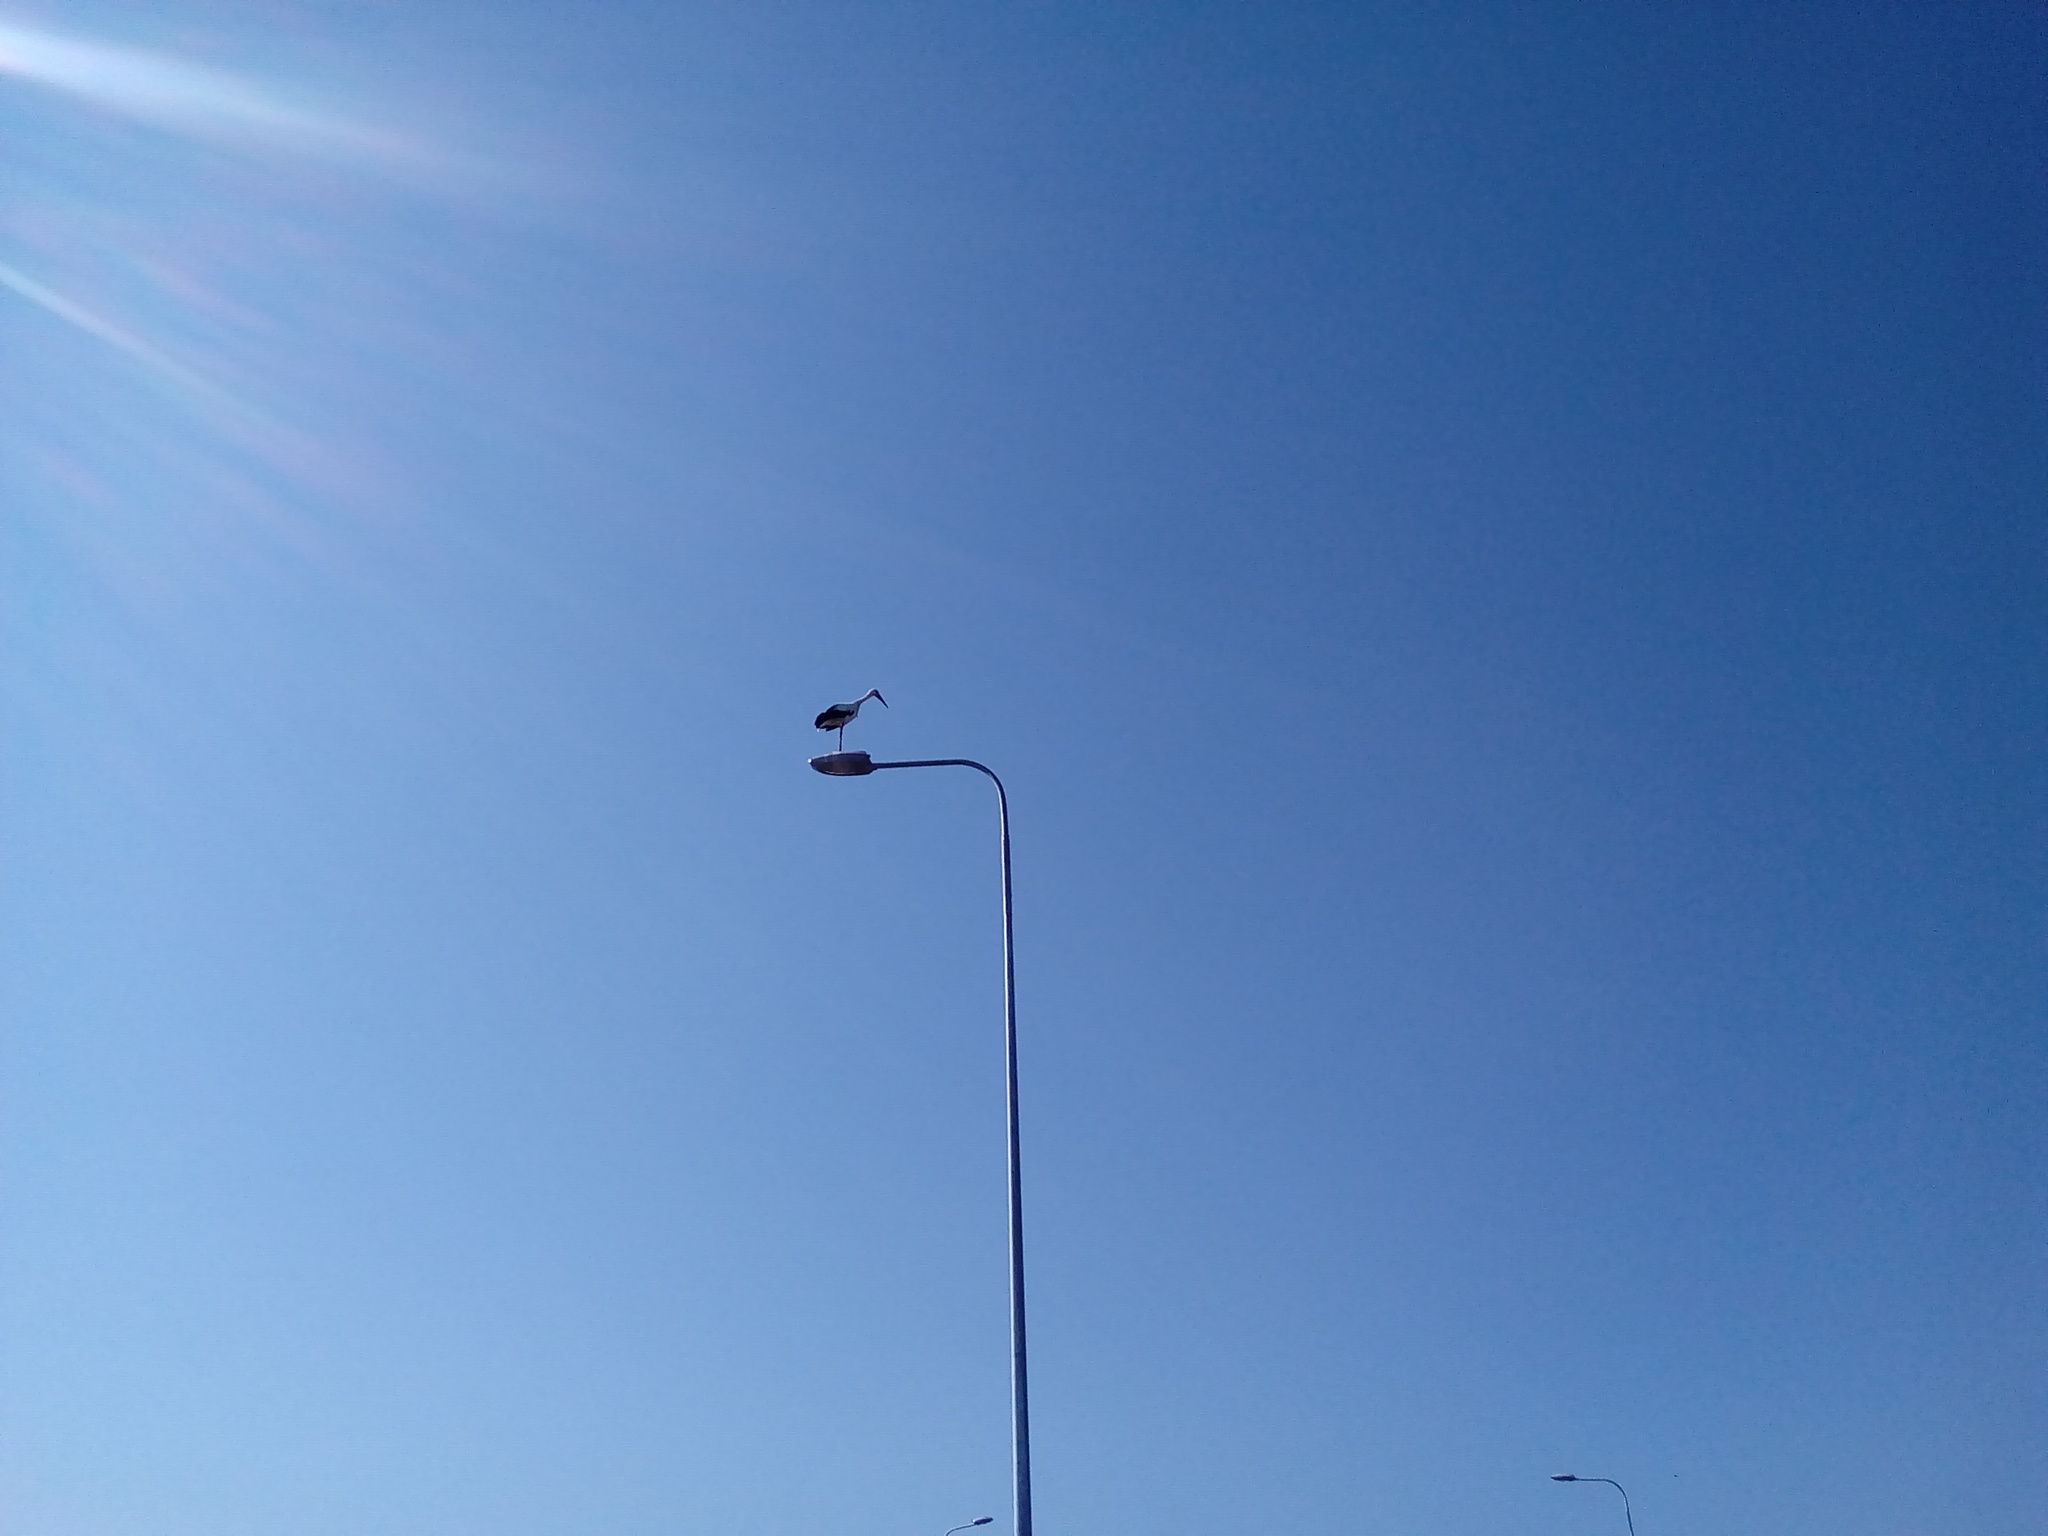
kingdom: Animalia
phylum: Chordata
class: Aves
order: Ciconiiformes
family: Ciconiidae
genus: Ciconia
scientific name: Ciconia ciconia
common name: White stork
